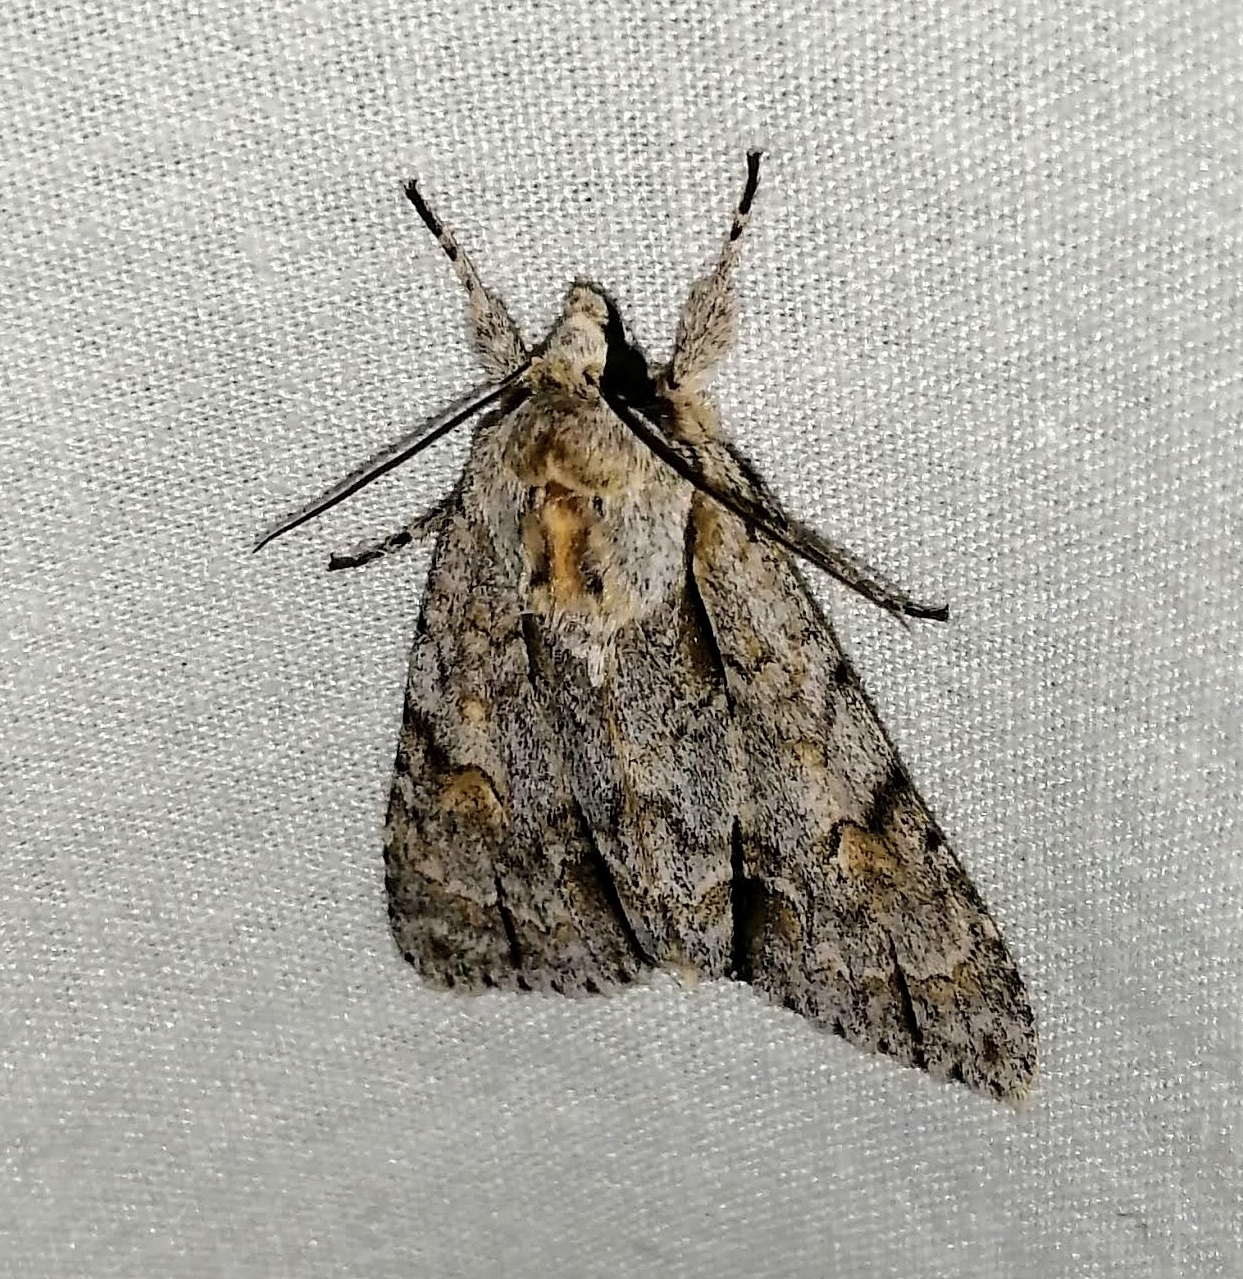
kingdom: Animalia
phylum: Arthropoda
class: Insecta
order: Lepidoptera
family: Noctuidae
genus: Acronicta
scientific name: Acronicta morula
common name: Ochre dagger
